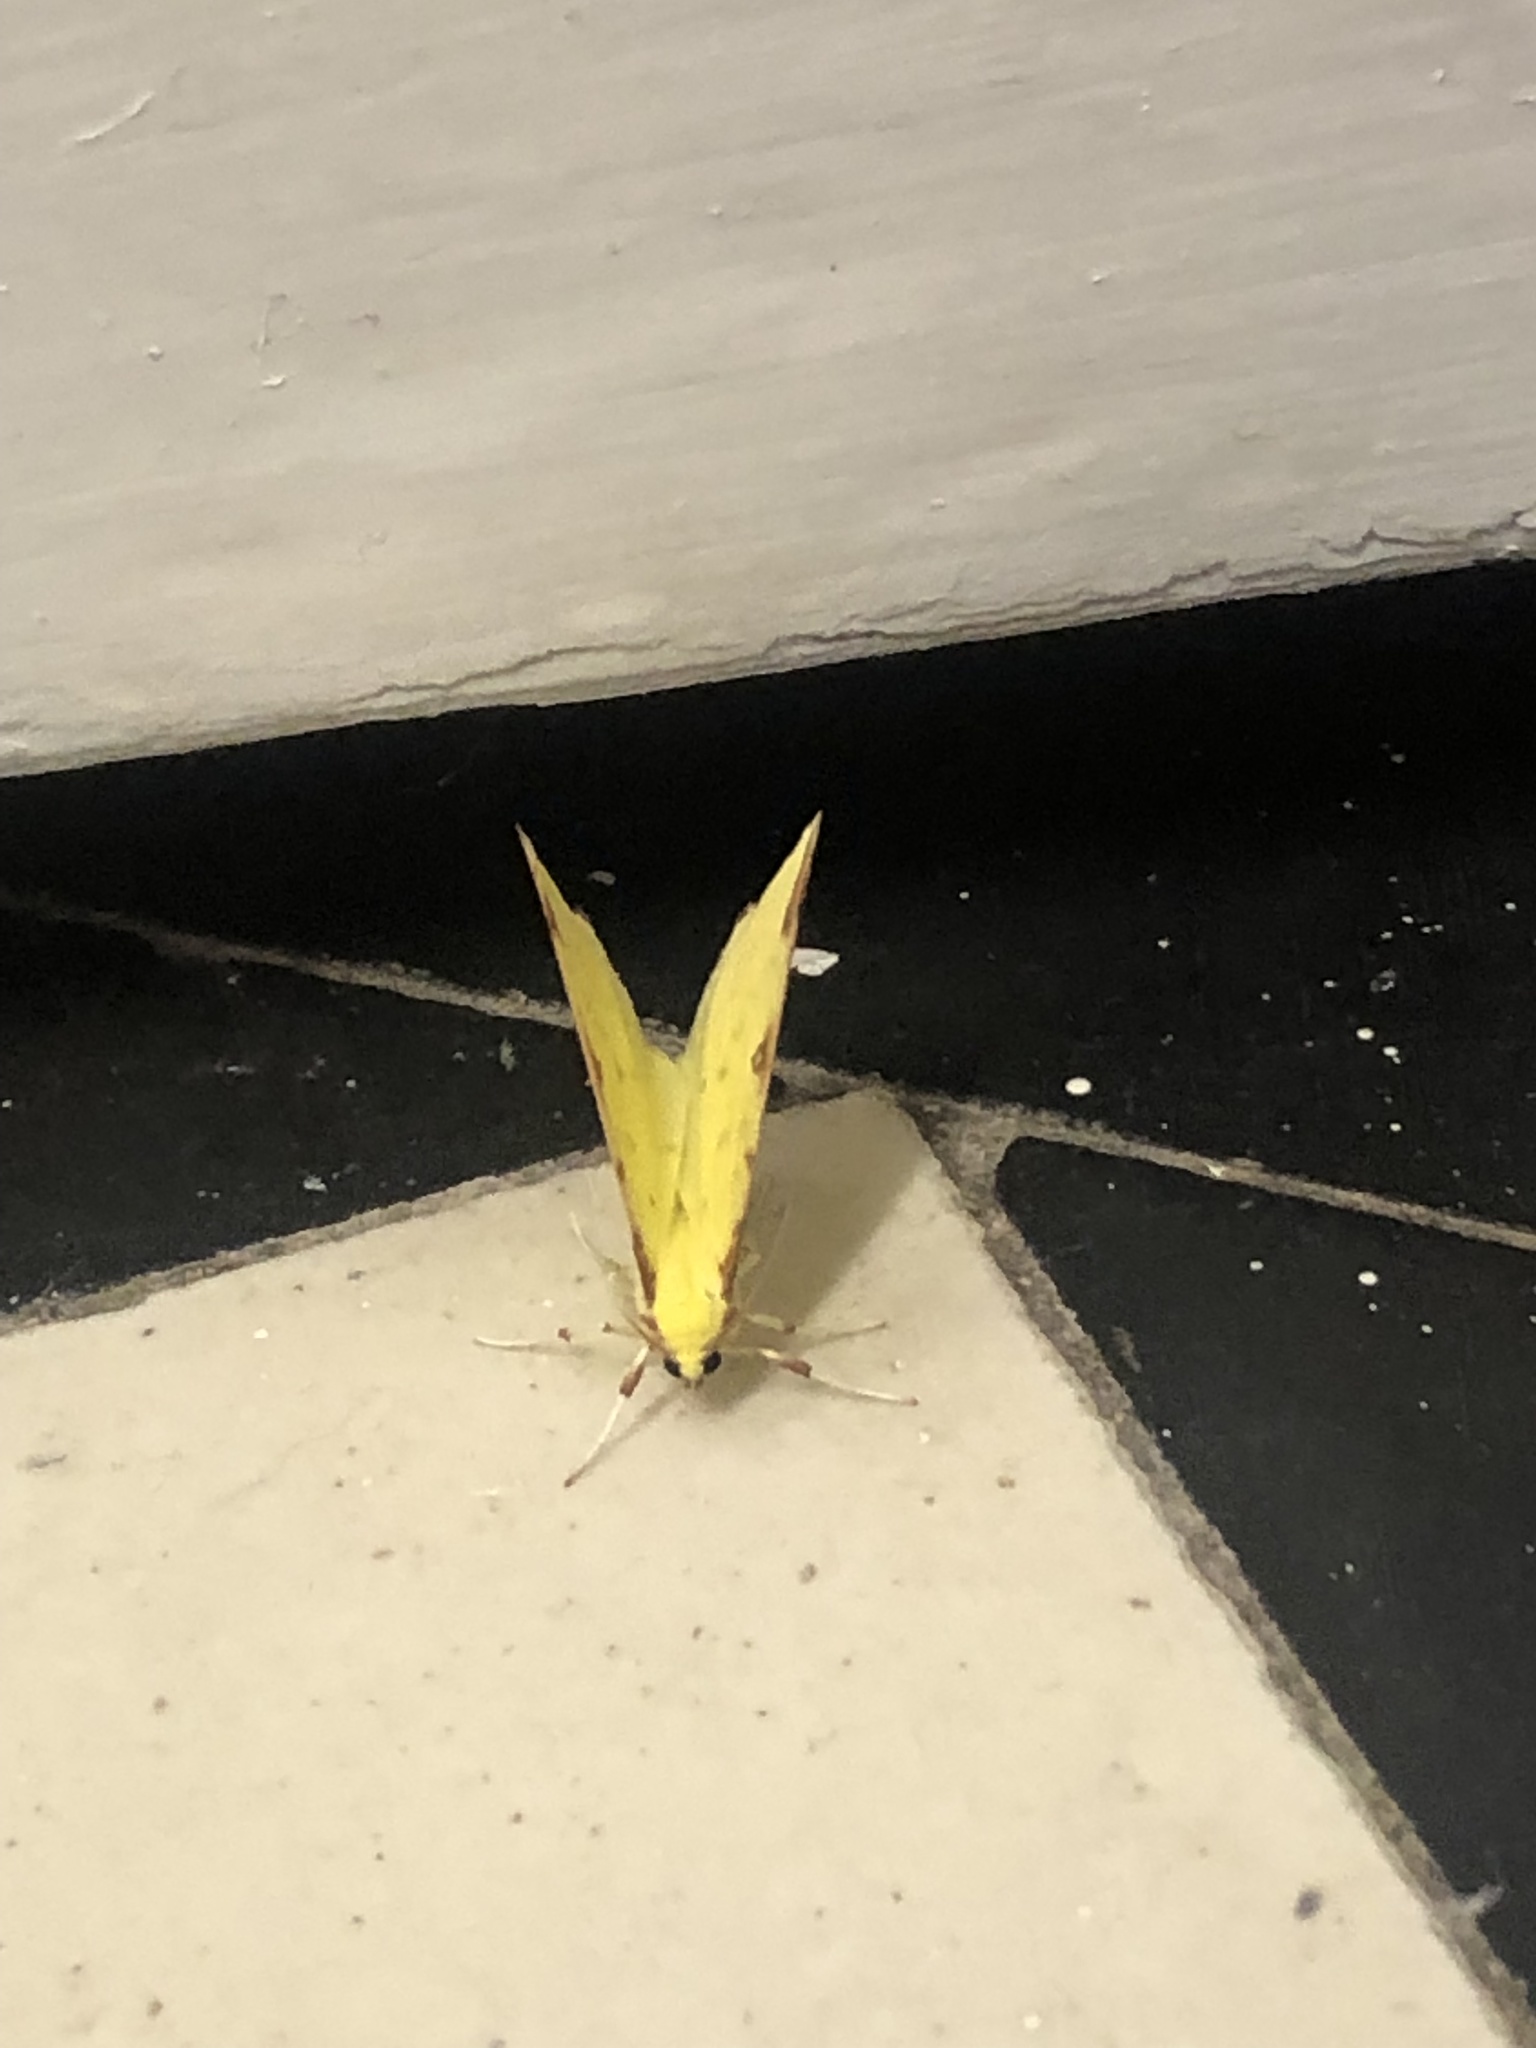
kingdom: Animalia
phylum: Arthropoda
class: Insecta
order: Lepidoptera
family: Geometridae
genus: Opisthograptis
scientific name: Opisthograptis luteolata
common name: Brimstone moth
